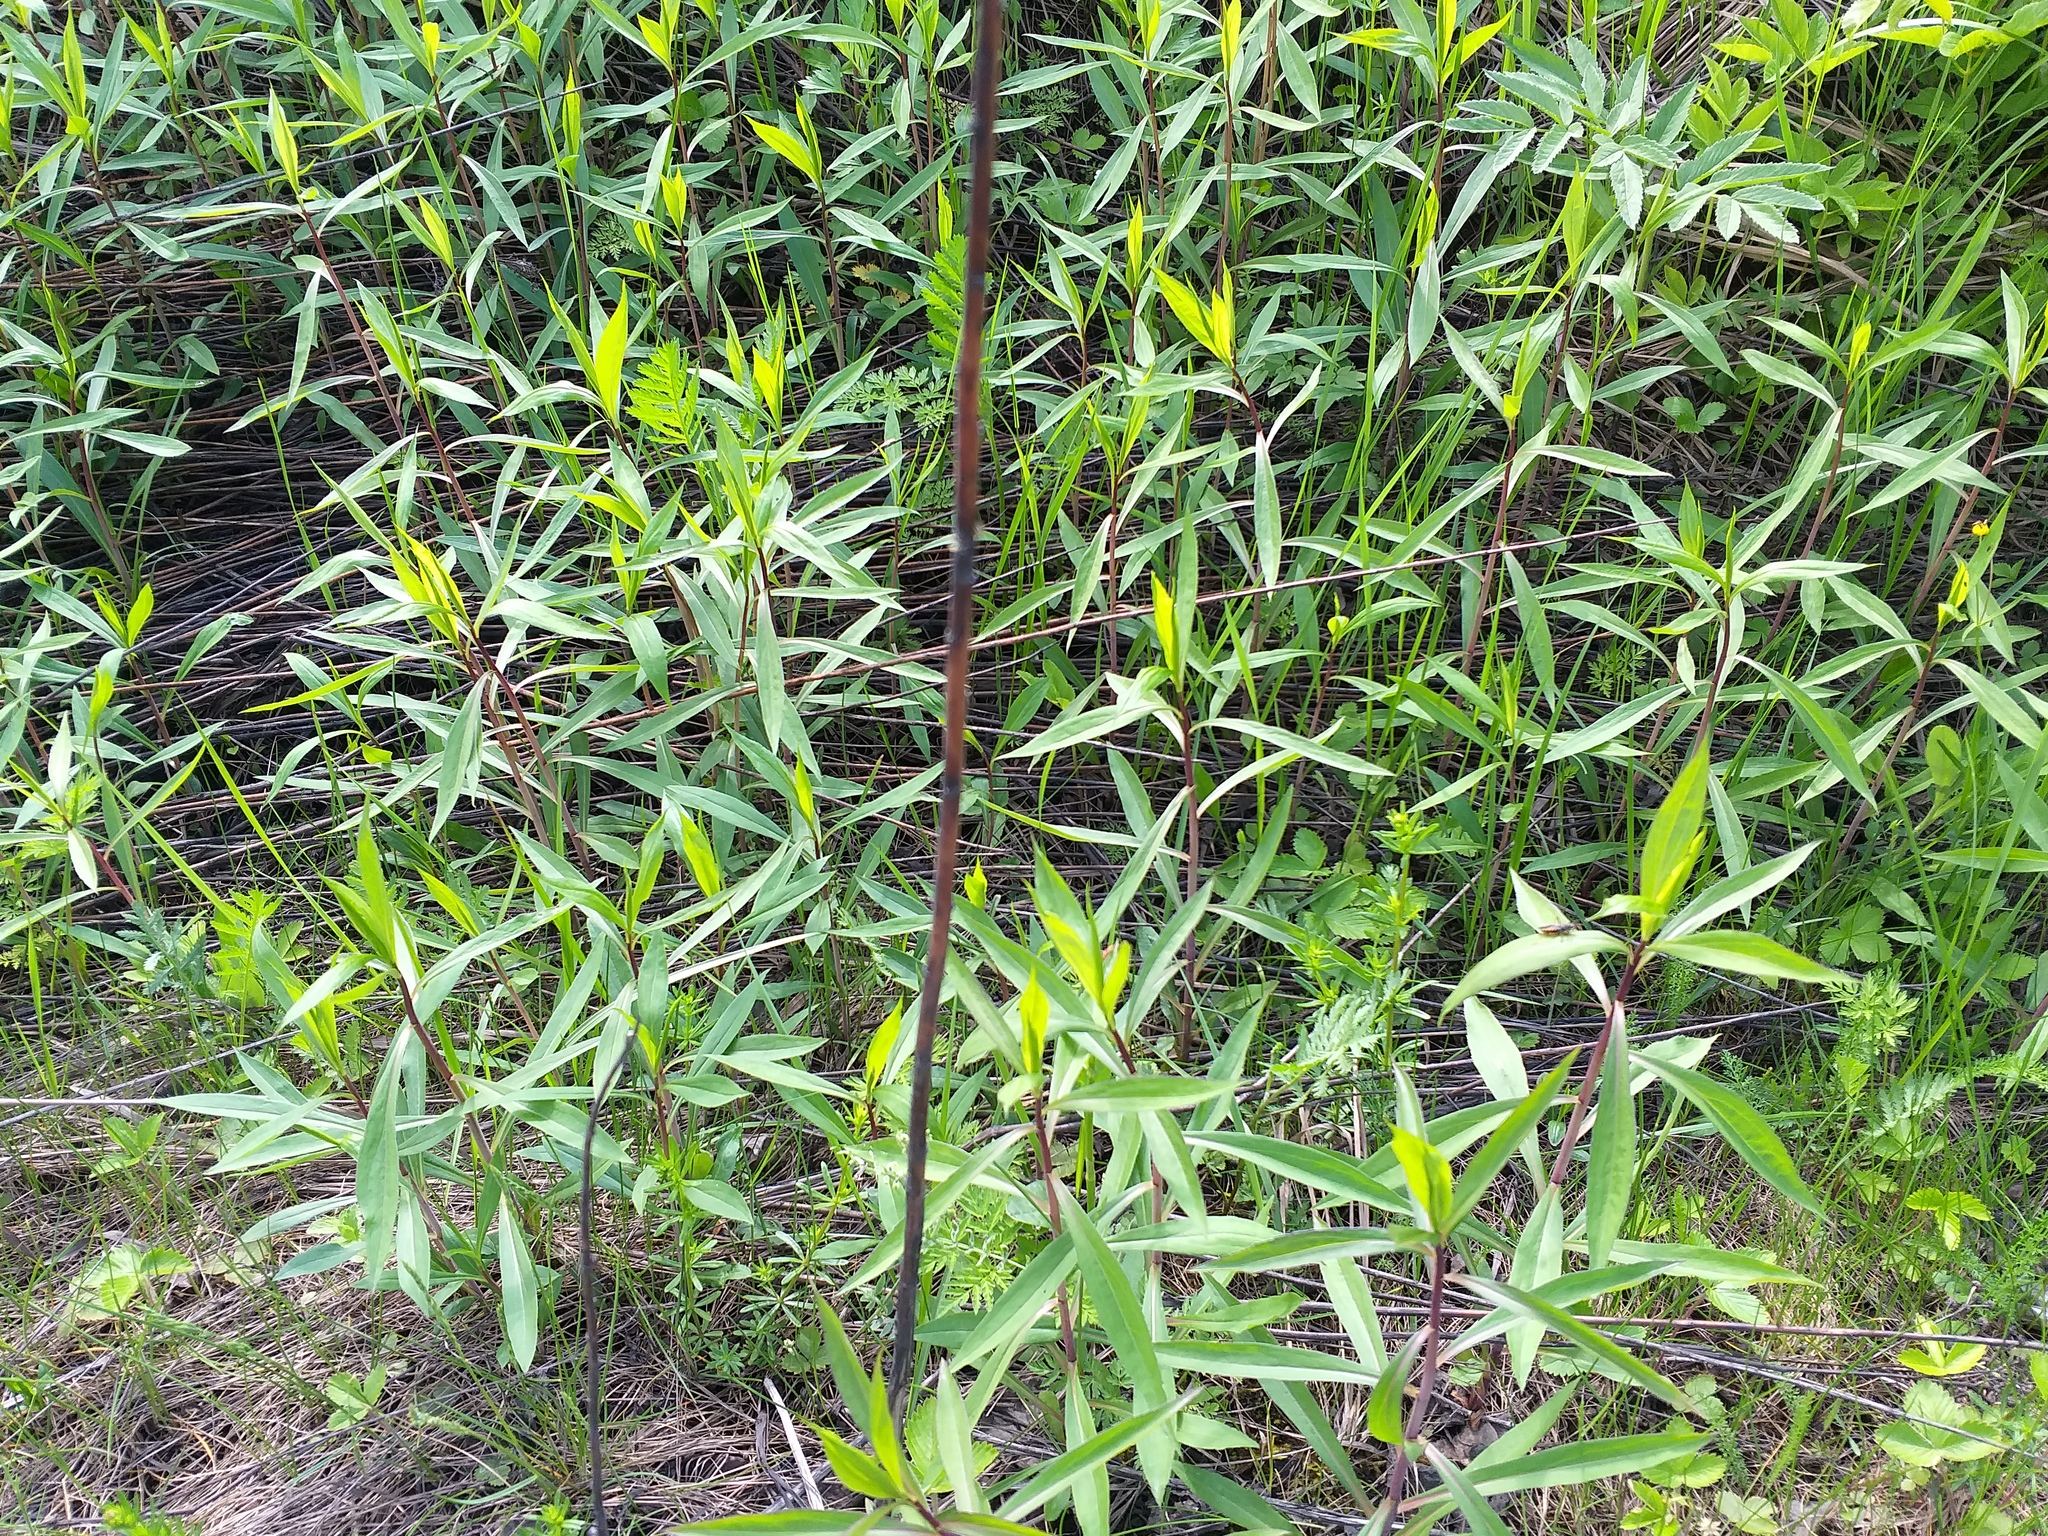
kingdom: Plantae
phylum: Tracheophyta
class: Magnoliopsida
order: Asterales
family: Asteraceae
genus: Solidago
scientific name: Solidago gigantea
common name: Giant goldenrod
